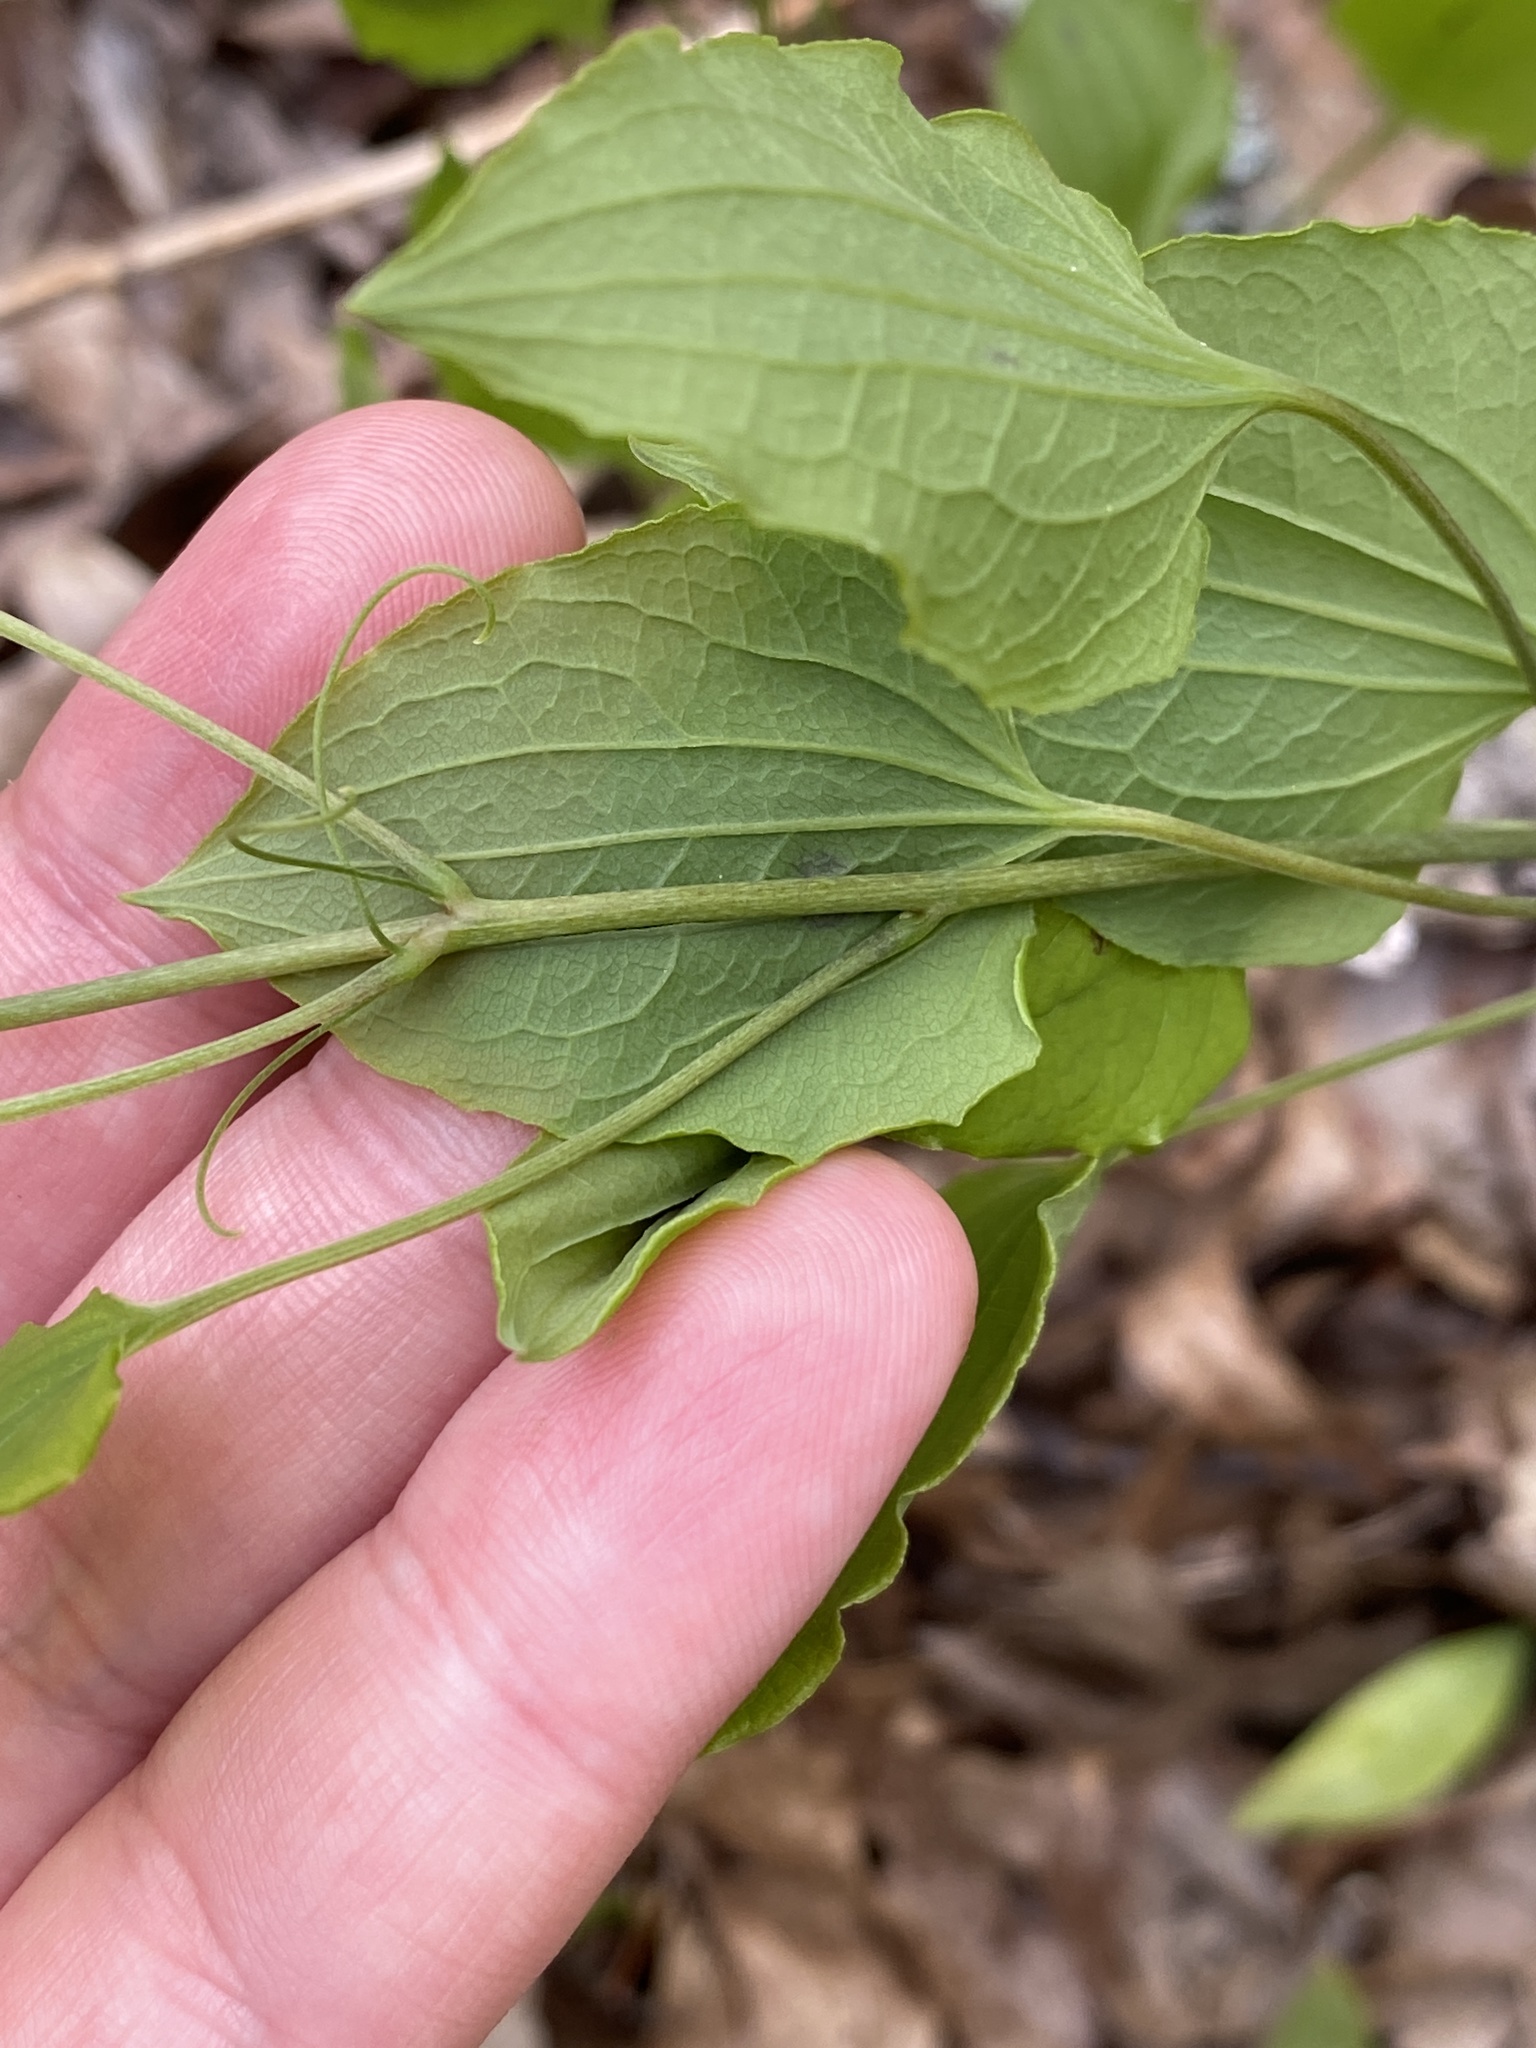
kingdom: Plantae
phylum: Tracheophyta
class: Liliopsida
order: Liliales
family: Smilacaceae
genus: Smilax
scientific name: Smilax herbacea
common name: Jacob's-ladder
